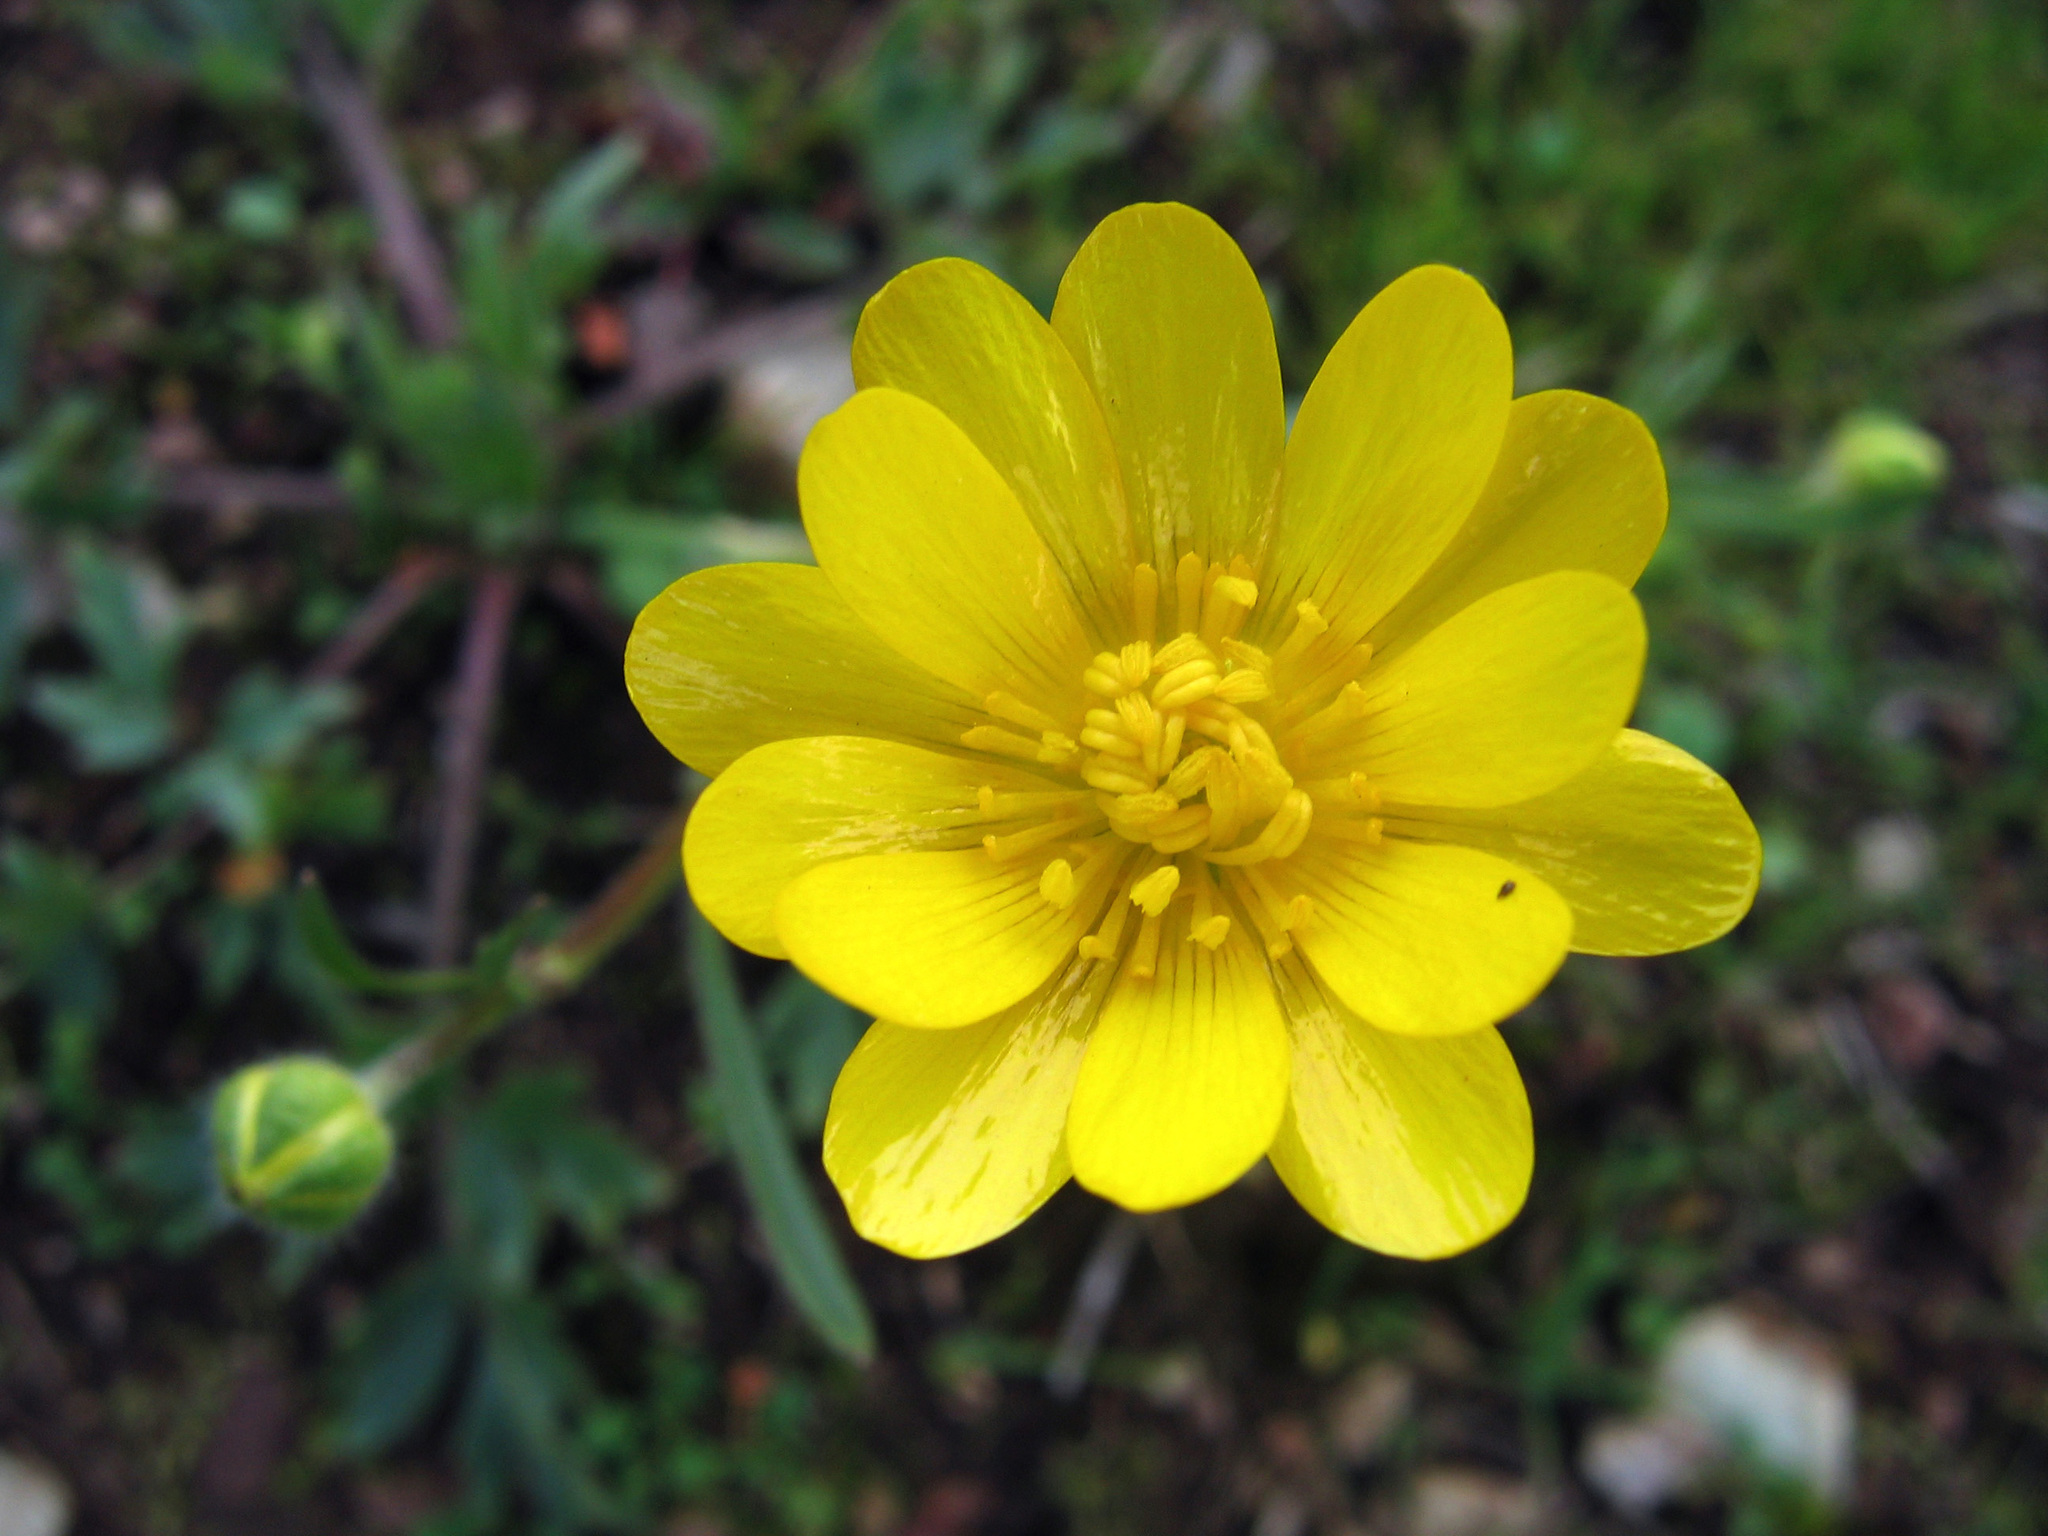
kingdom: Plantae
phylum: Tracheophyta
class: Magnoliopsida
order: Ranunculales
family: Ranunculaceae
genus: Ranunculus
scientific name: Ranunculus californicus
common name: California buttercup
